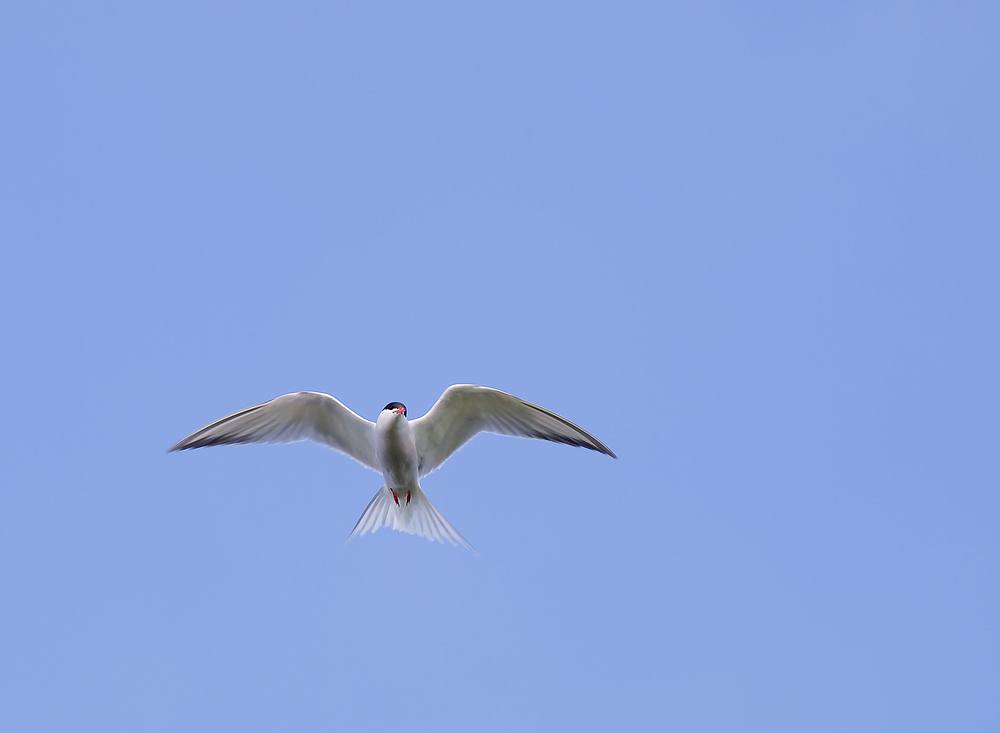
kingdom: Animalia
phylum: Chordata
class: Aves
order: Charadriiformes
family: Laridae
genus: Sterna
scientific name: Sterna hirundo
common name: Common tern
